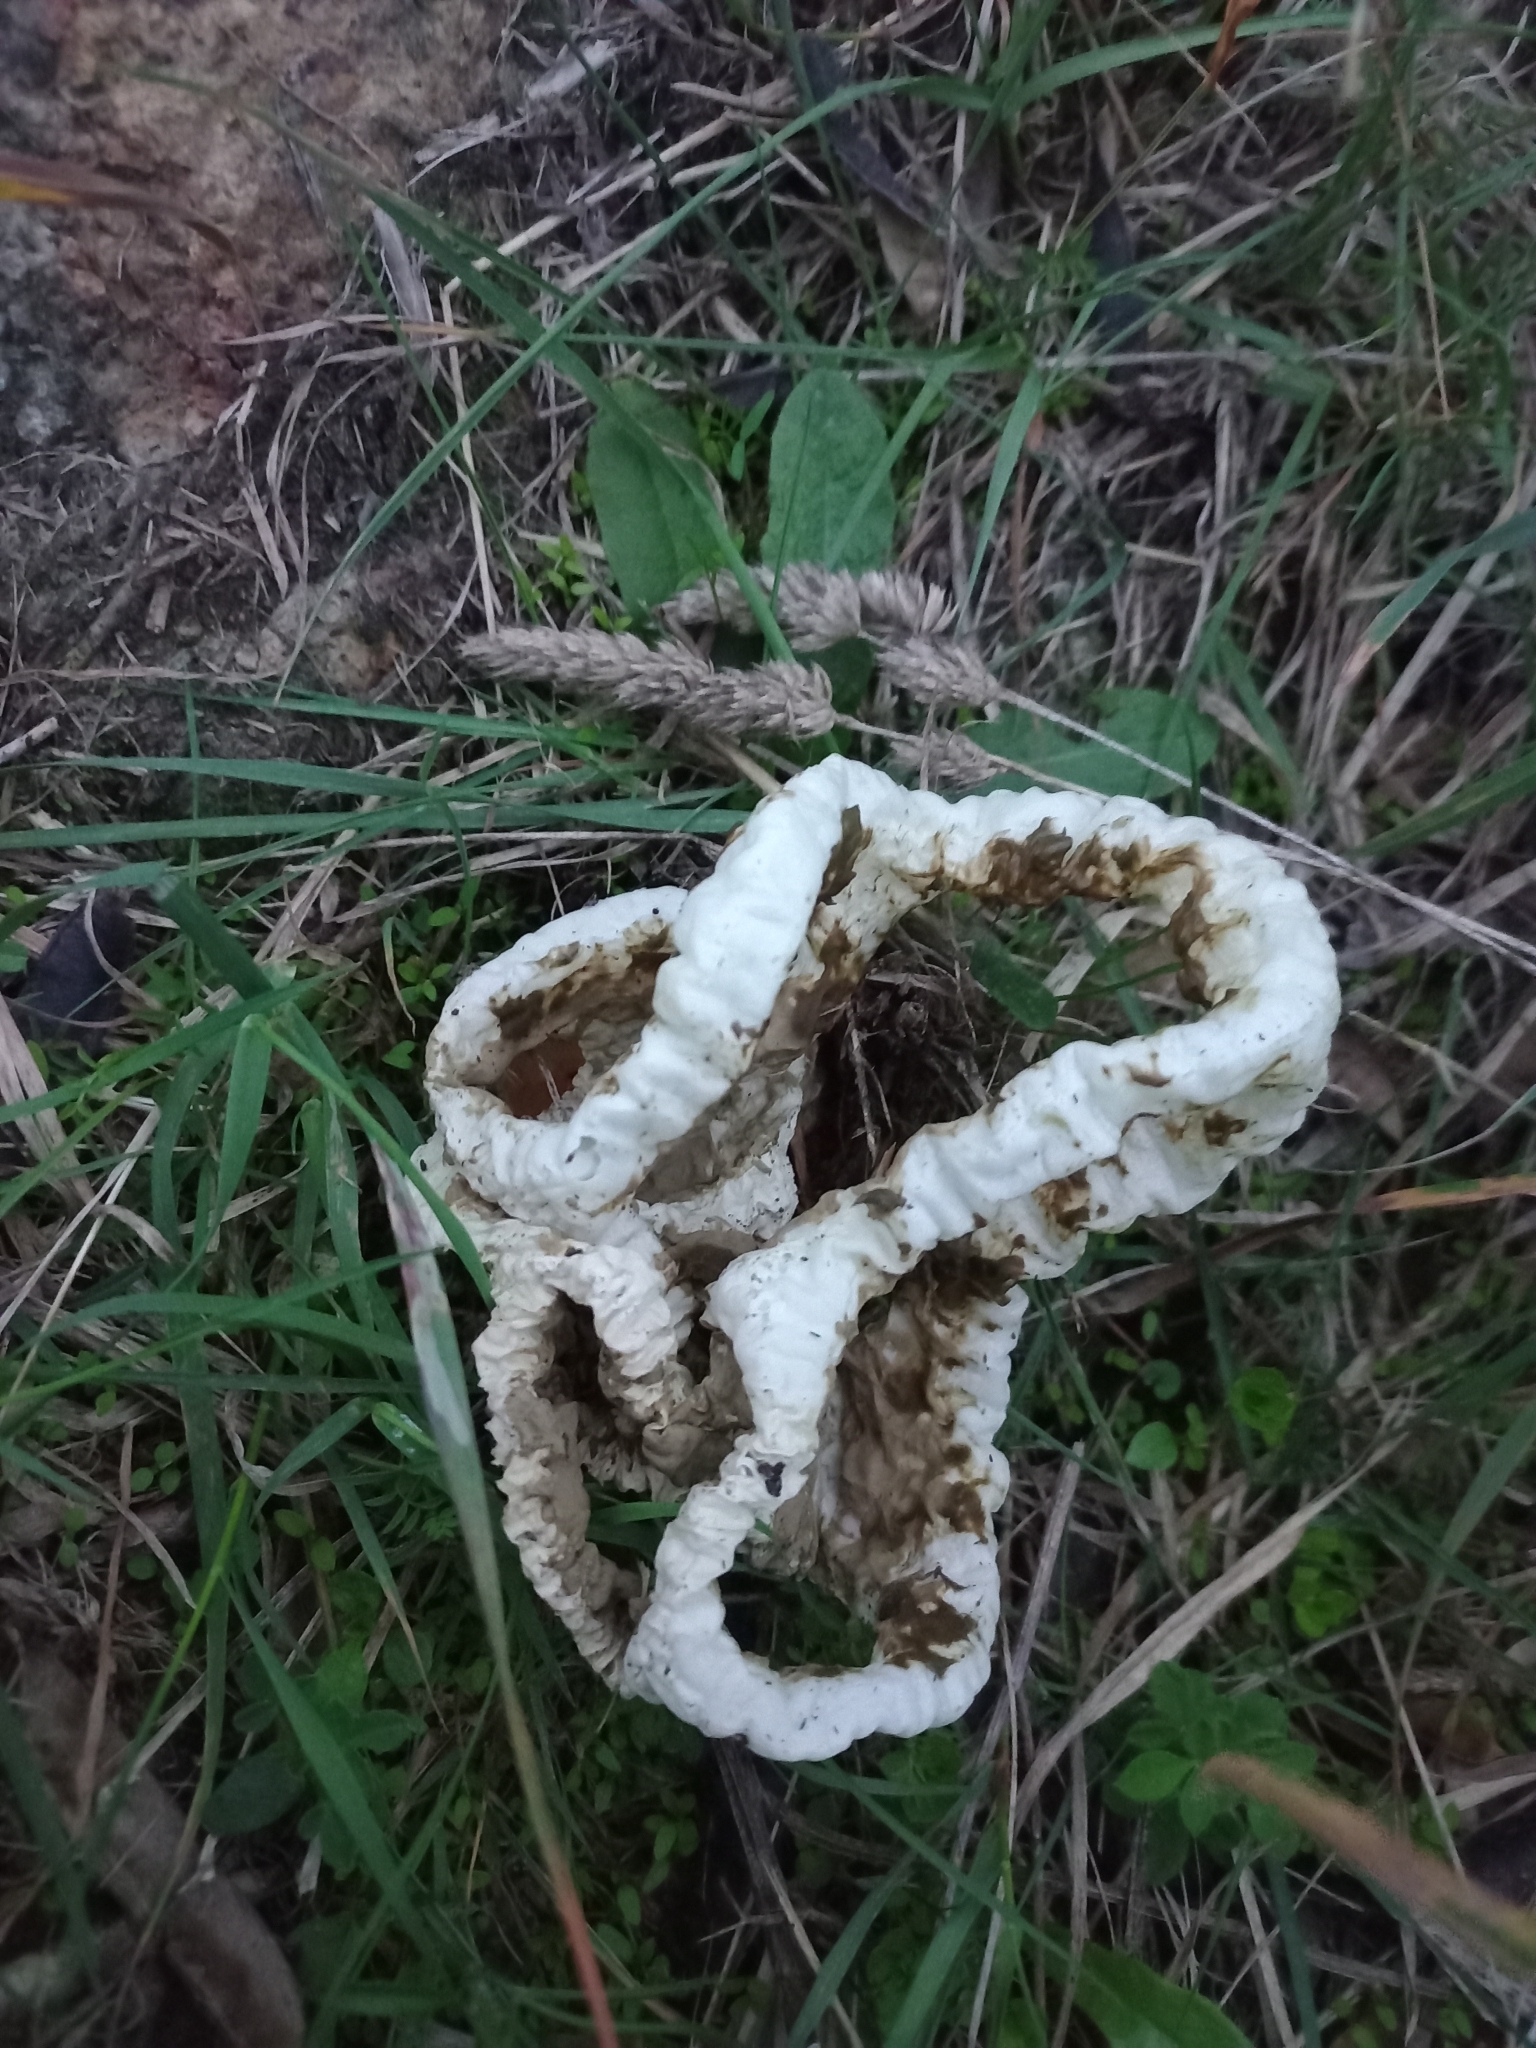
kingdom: Fungi
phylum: Basidiomycota
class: Agaricomycetes
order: Phallales
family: Phallaceae
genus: Ileodictyon
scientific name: Ileodictyon cibarium
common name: Basket fungus
